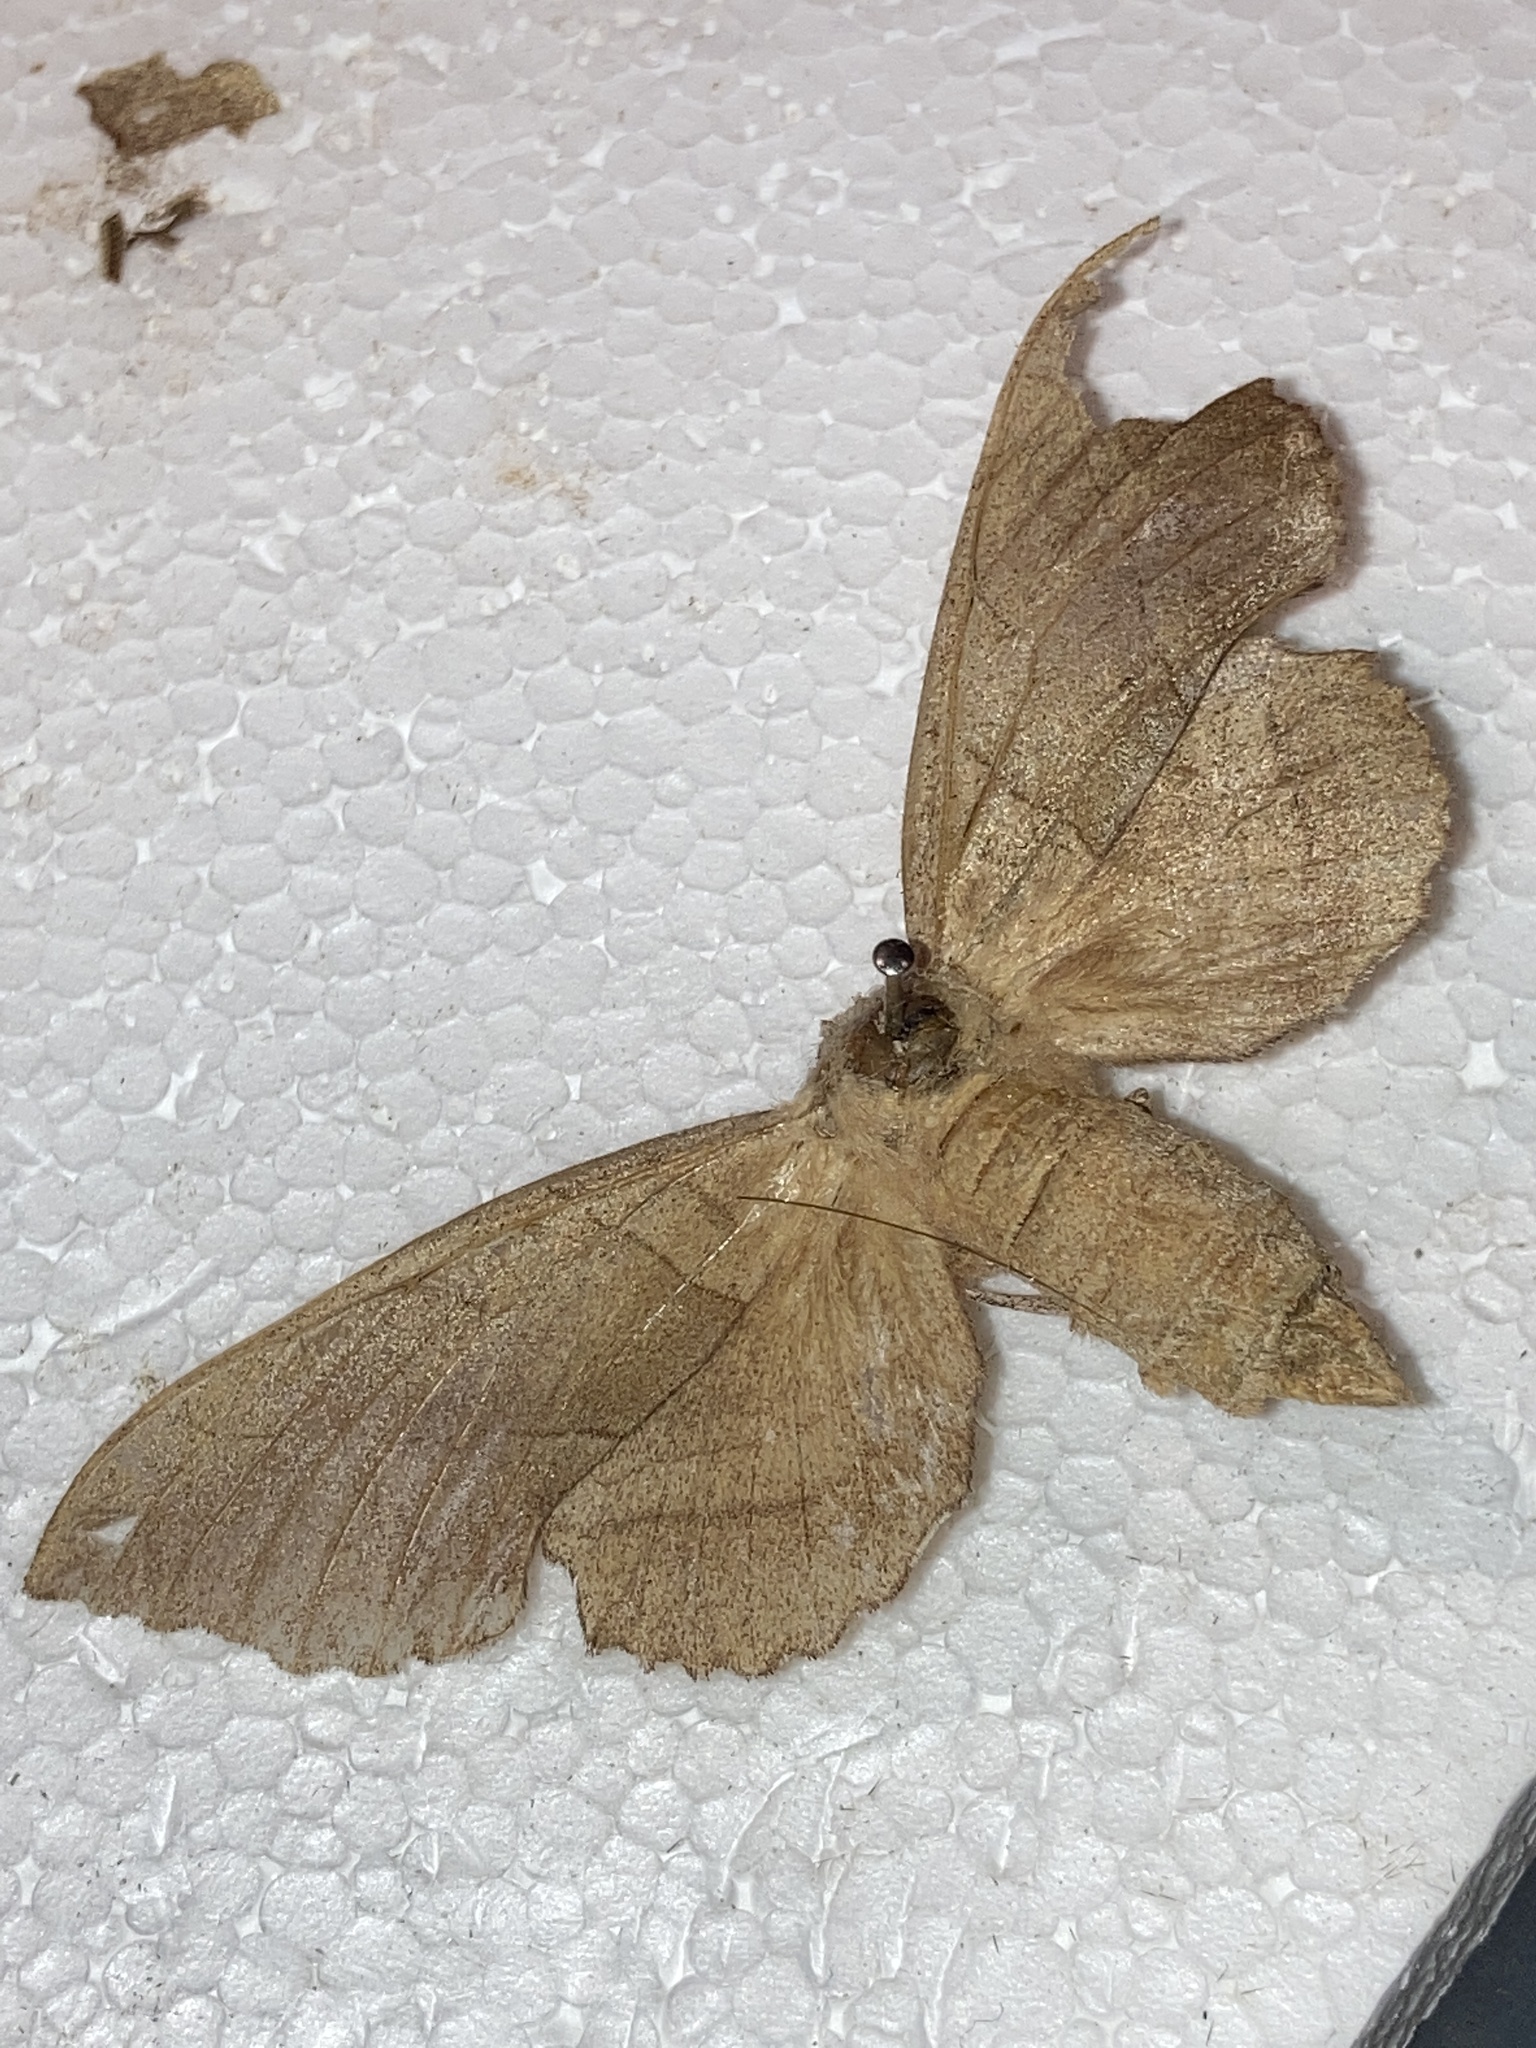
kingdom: Animalia
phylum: Arthropoda
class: Insecta
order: Lepidoptera
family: Sphingidae
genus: Amorpha
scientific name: Amorpha juglandis
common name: Walnut sphinx
